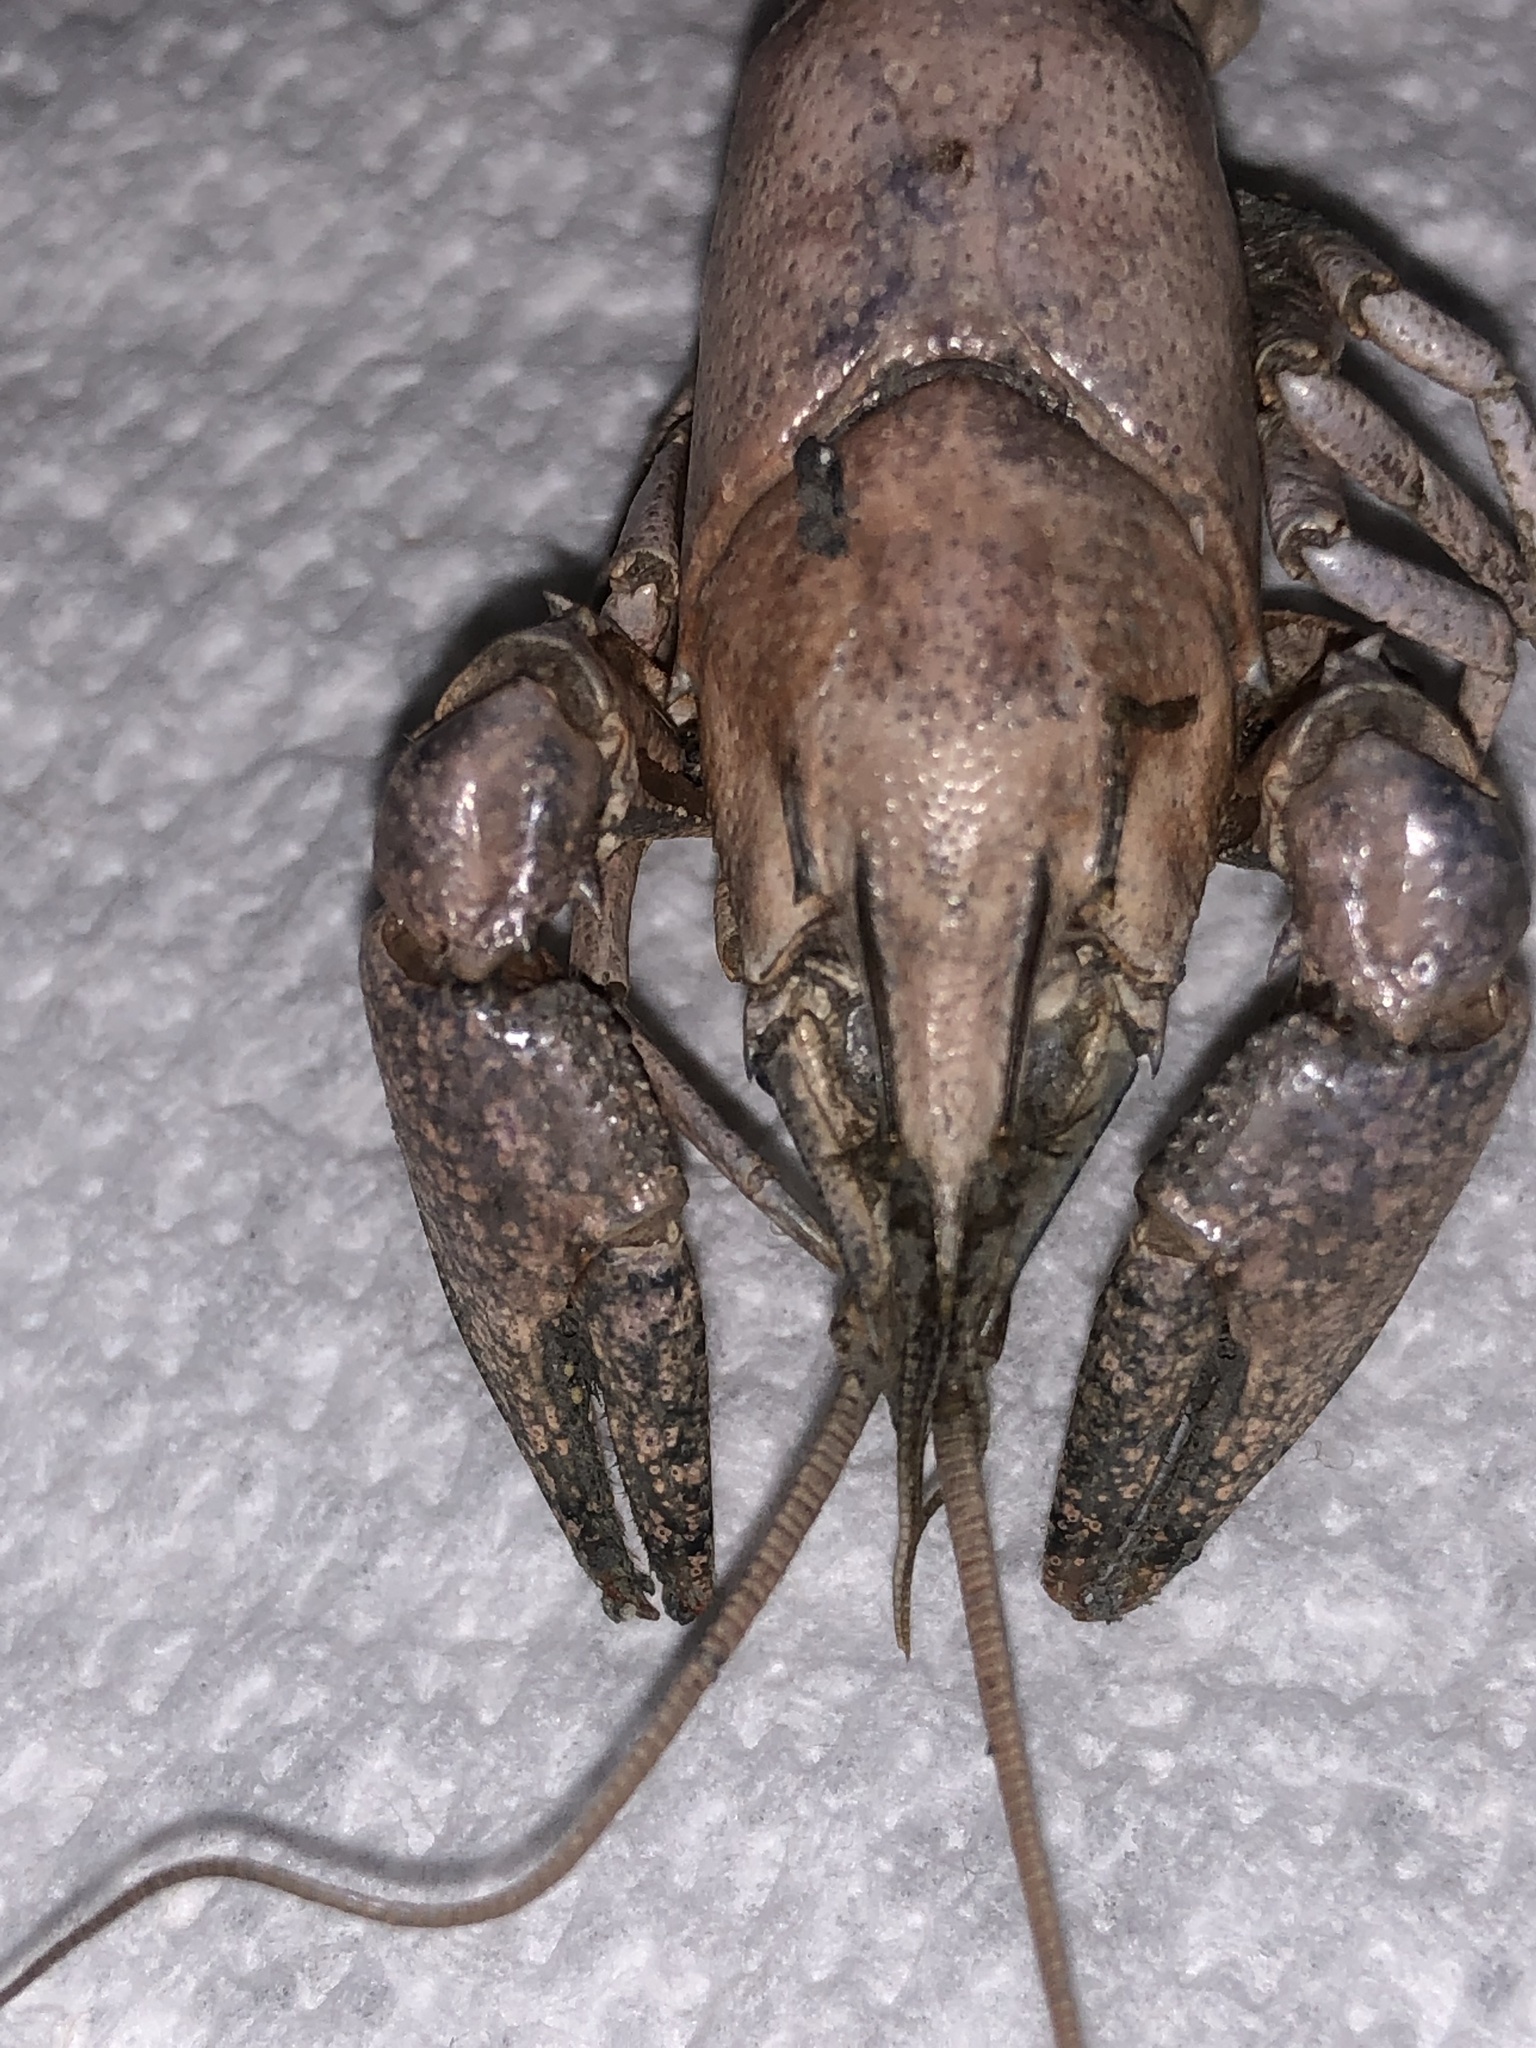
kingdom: Animalia
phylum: Arthropoda
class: Malacostraca
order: Decapoda
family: Cambaridae
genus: Faxonius
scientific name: Faxonius rusticus
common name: Rusty crayfish
